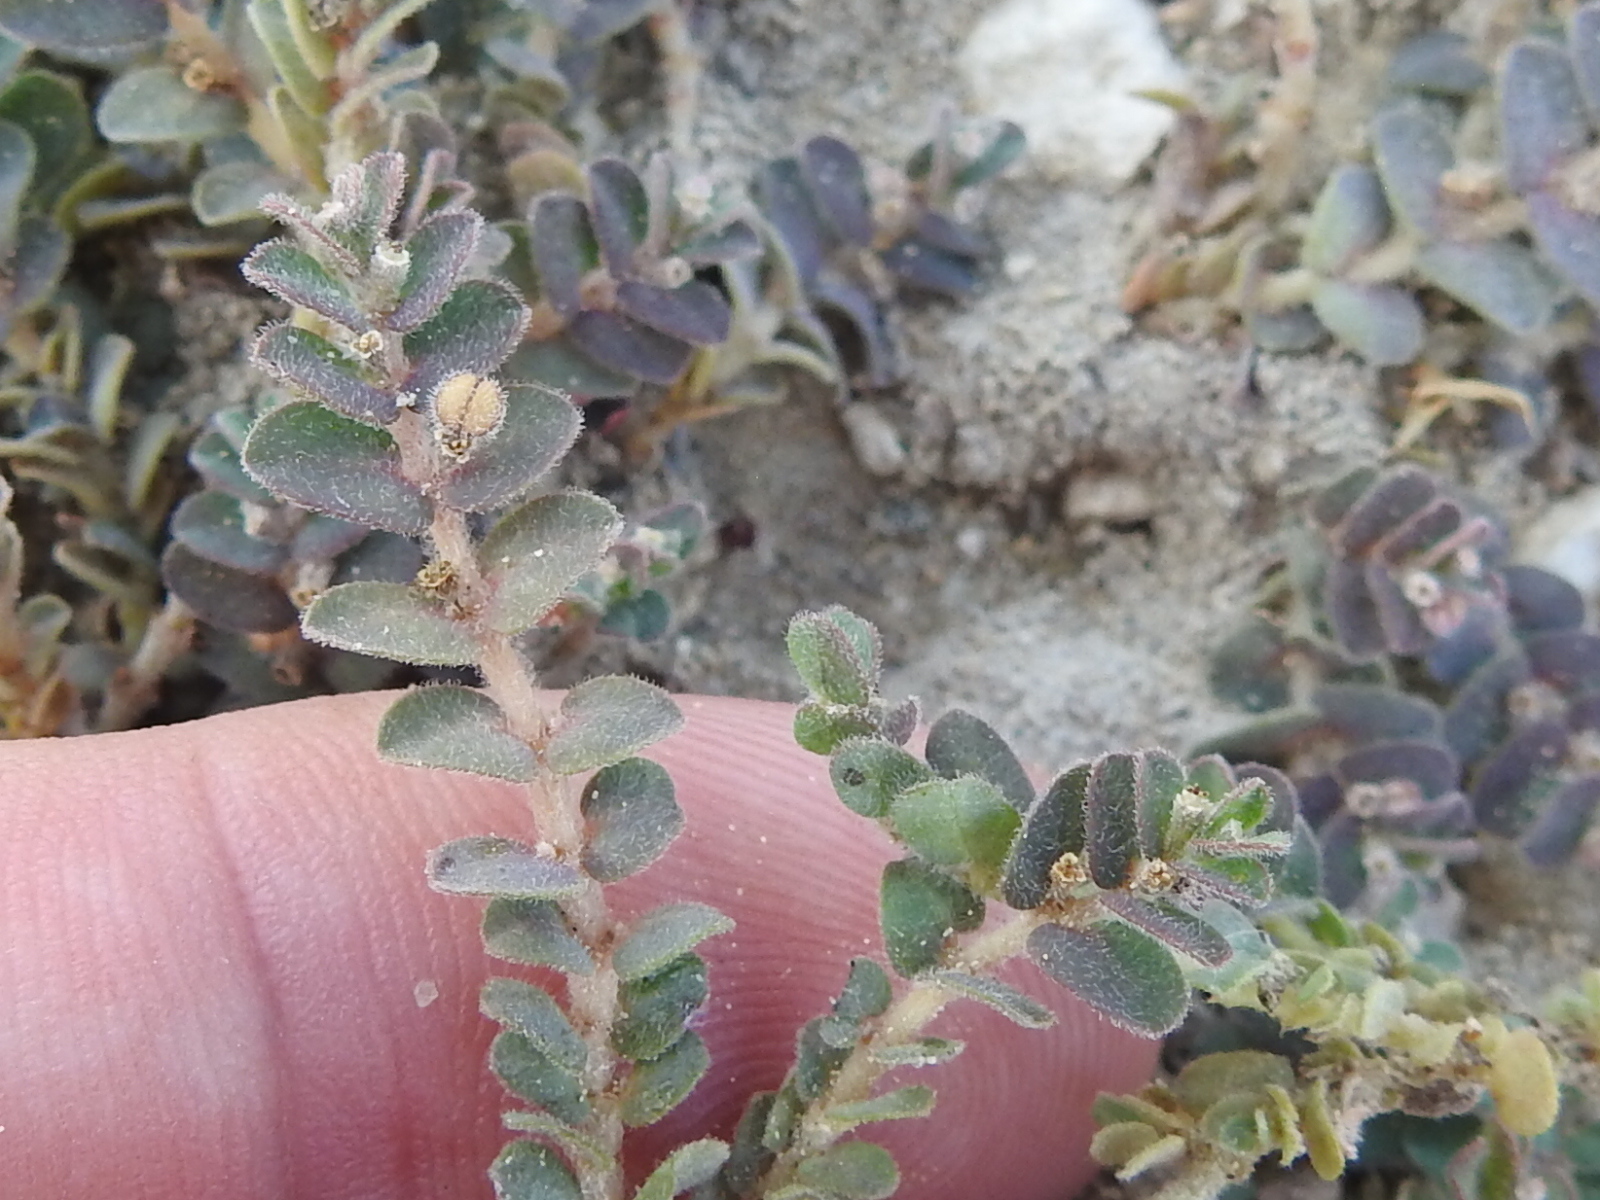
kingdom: Plantae
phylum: Tracheophyta
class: Magnoliopsida
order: Malpighiales
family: Euphorbiaceae
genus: Euphorbia
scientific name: Euphorbia laredana
